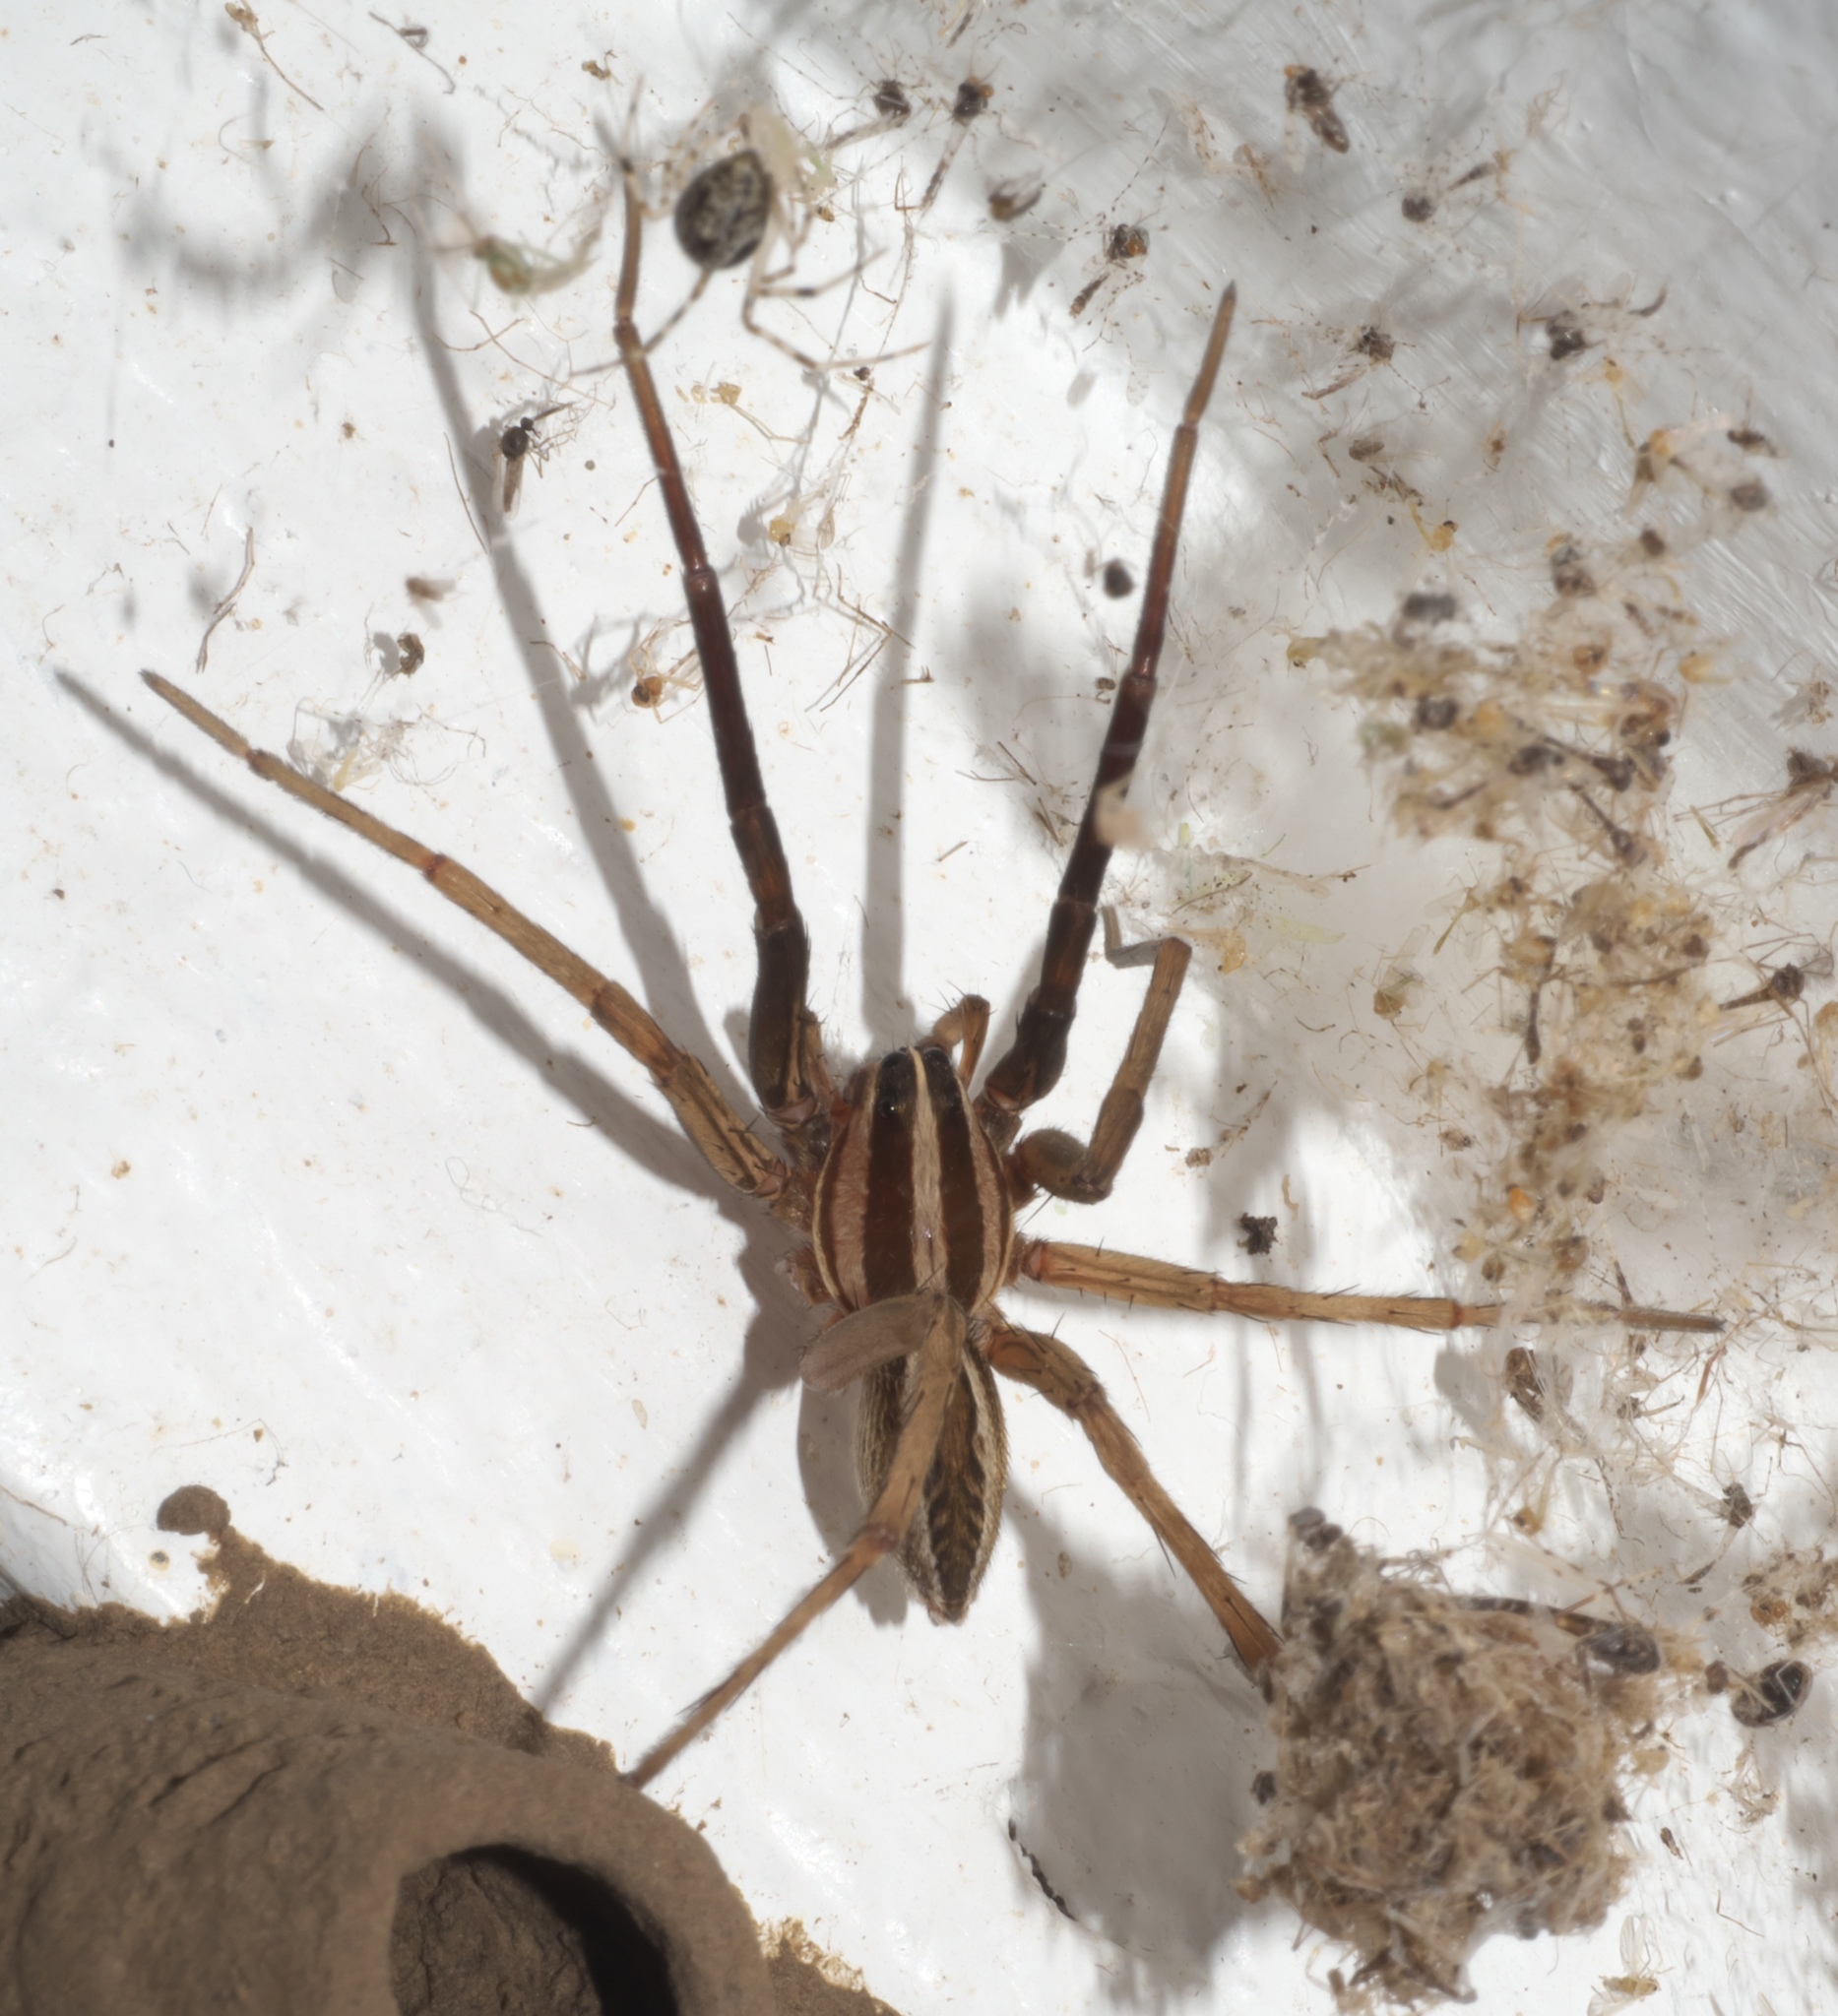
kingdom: Animalia
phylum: Arthropoda
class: Arachnida
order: Araneae
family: Lycosidae
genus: Rabidosa
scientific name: Rabidosa rabida
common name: Rabid wolf spider
